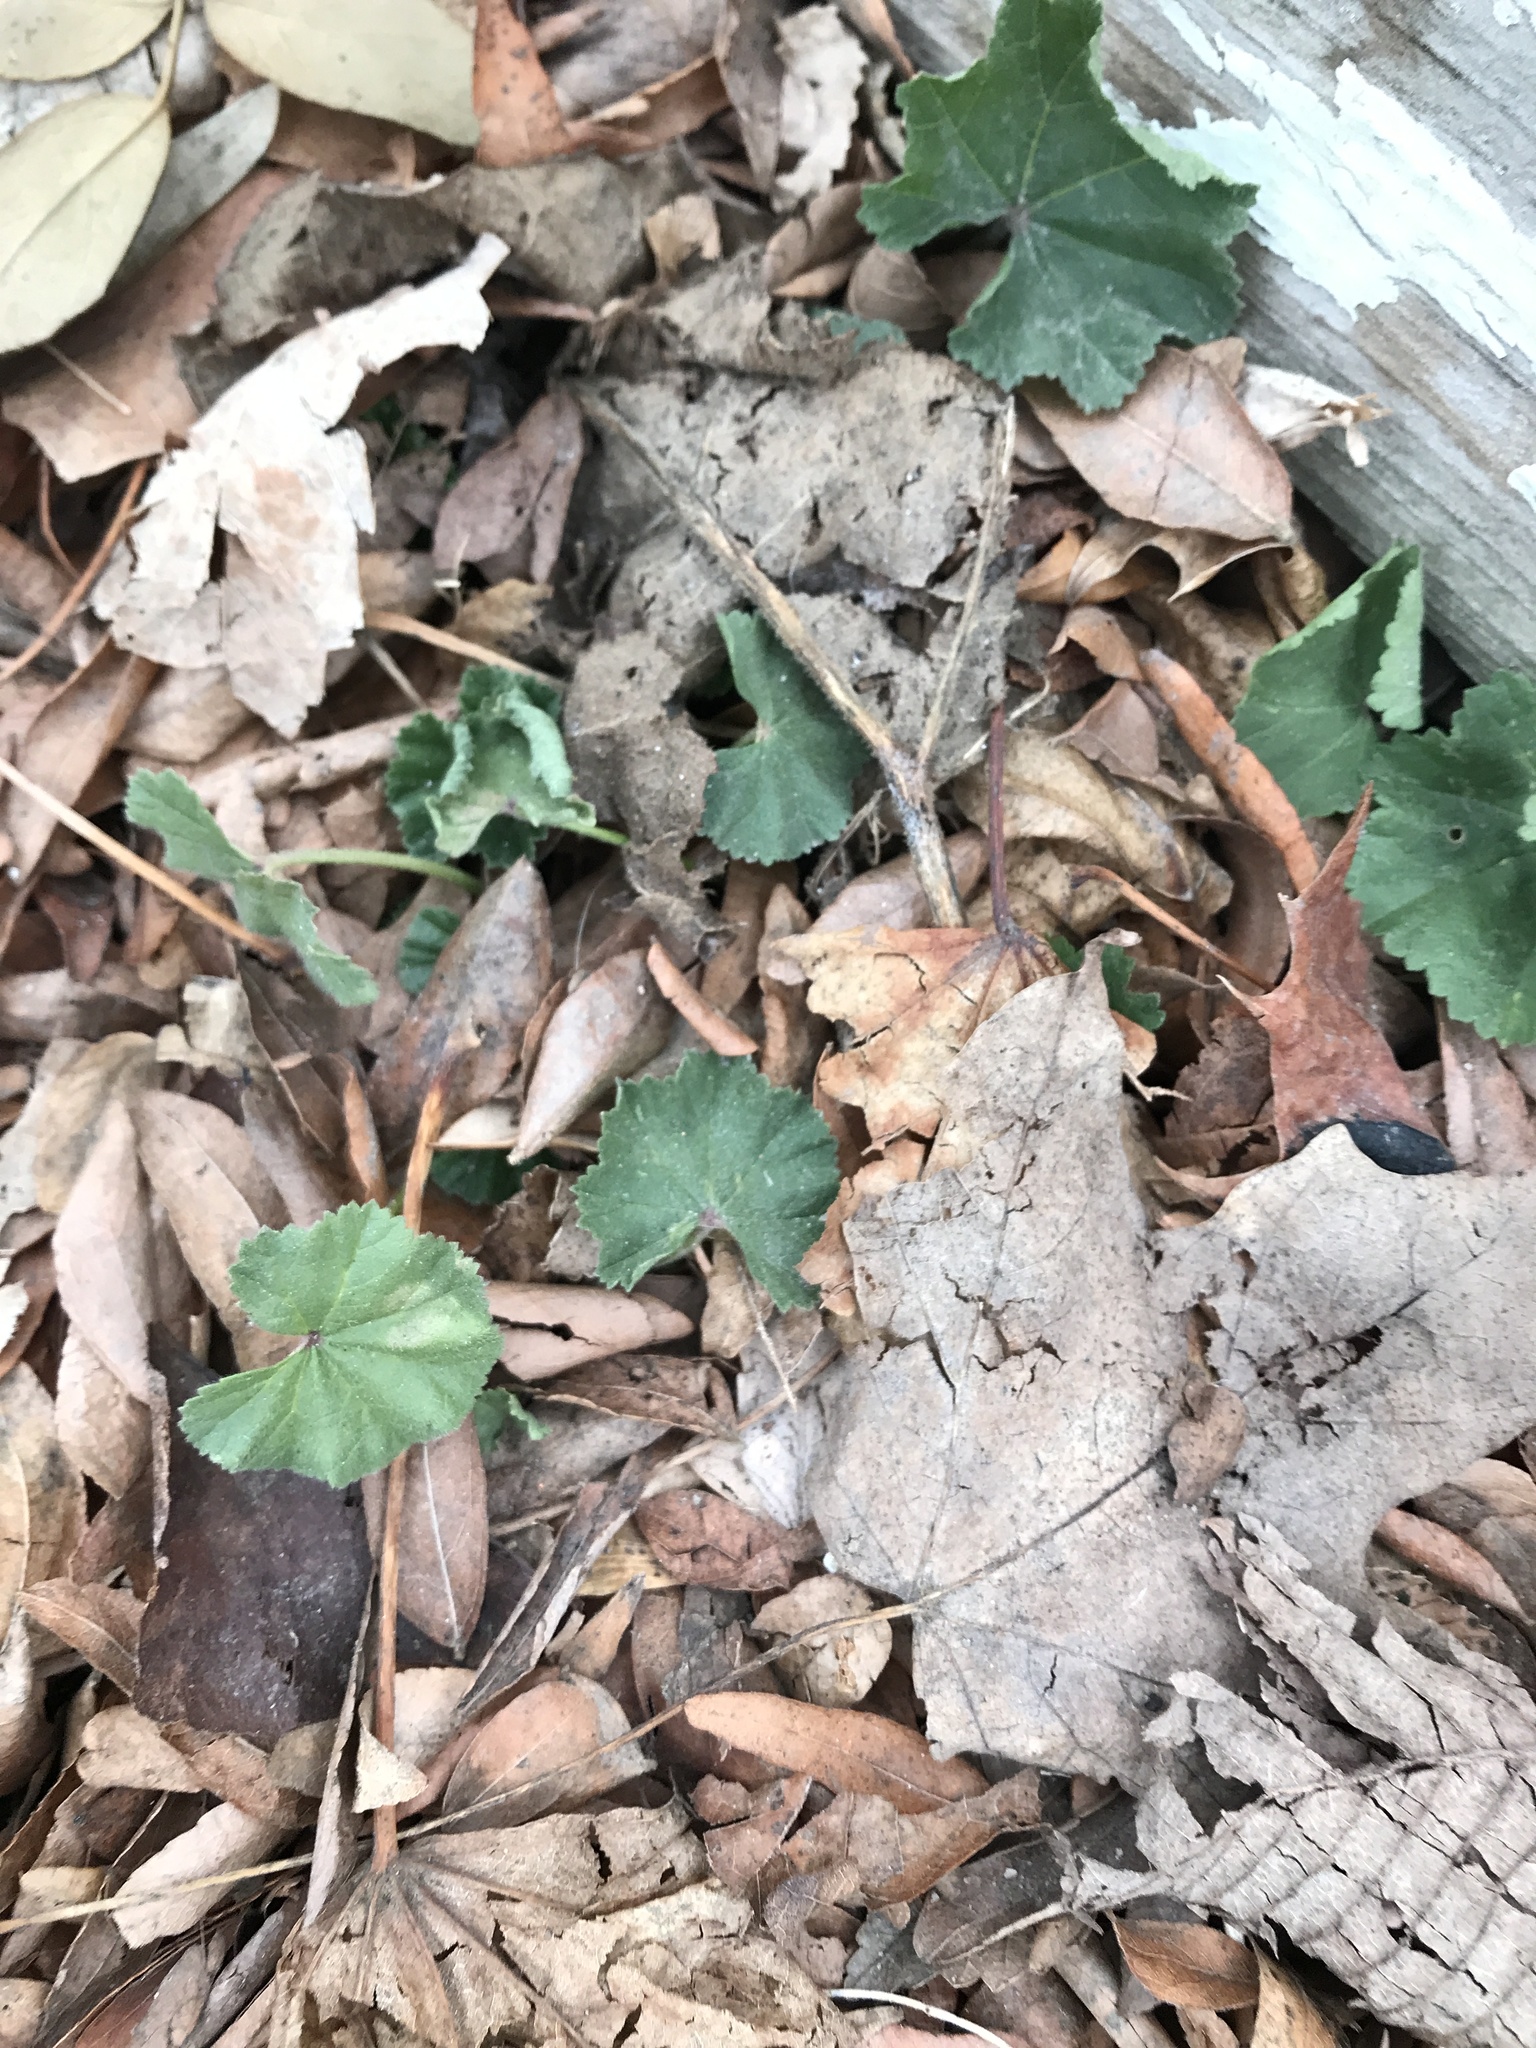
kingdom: Plantae
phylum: Tracheophyta
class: Magnoliopsida
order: Malvales
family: Malvaceae
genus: Malva
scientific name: Malva neglecta
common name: Common mallow
